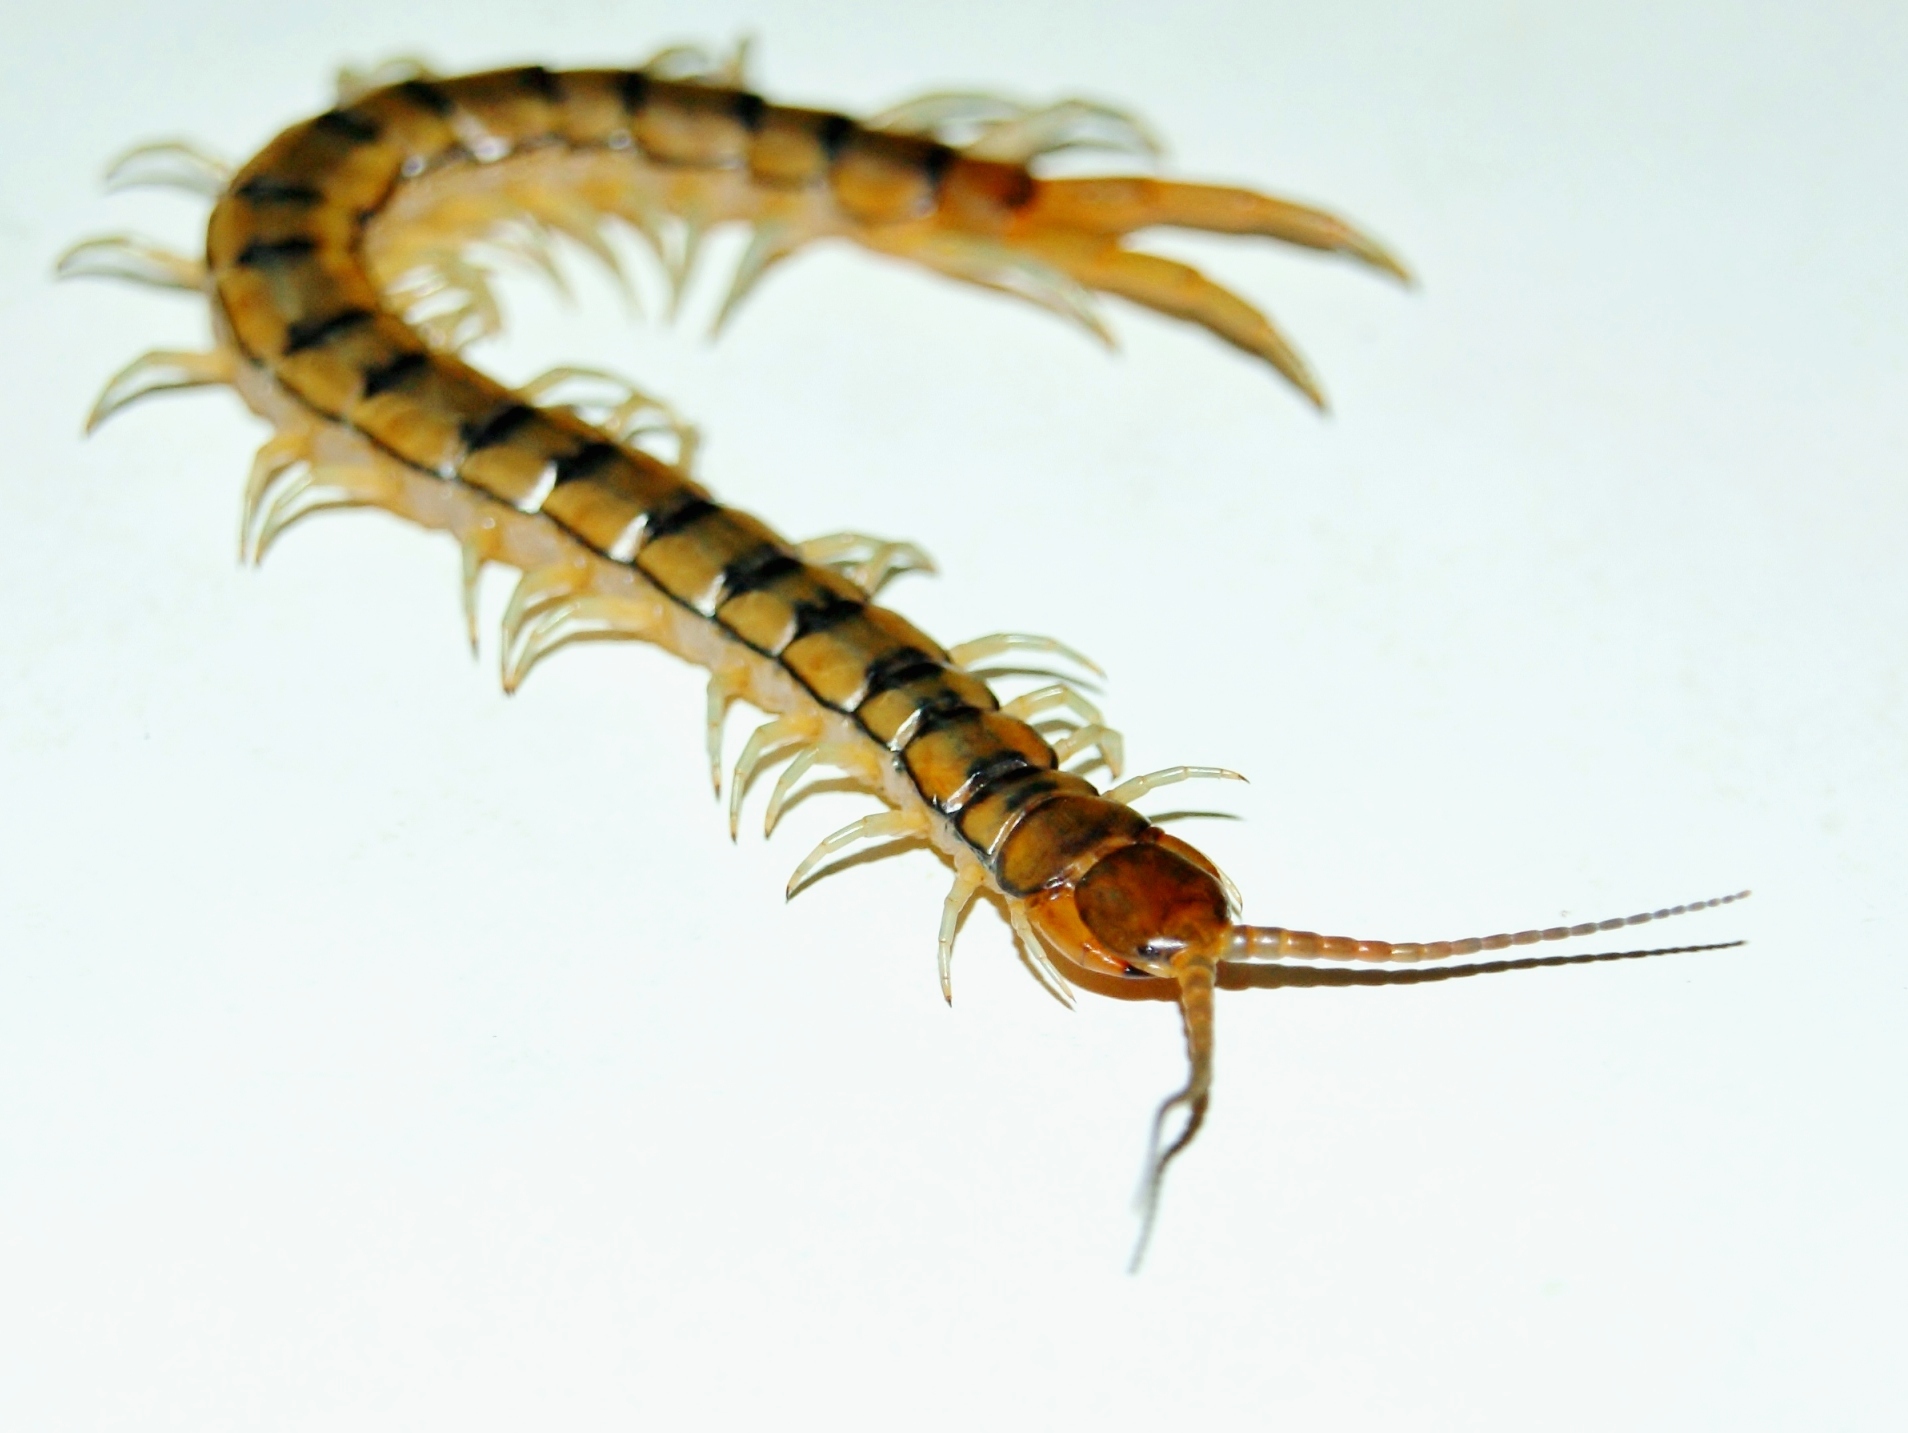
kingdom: Animalia
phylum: Arthropoda
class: Chilopoda
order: Scolopendromorpha
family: Scolopendridae
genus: Scolopendra
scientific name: Scolopendra cingulata
